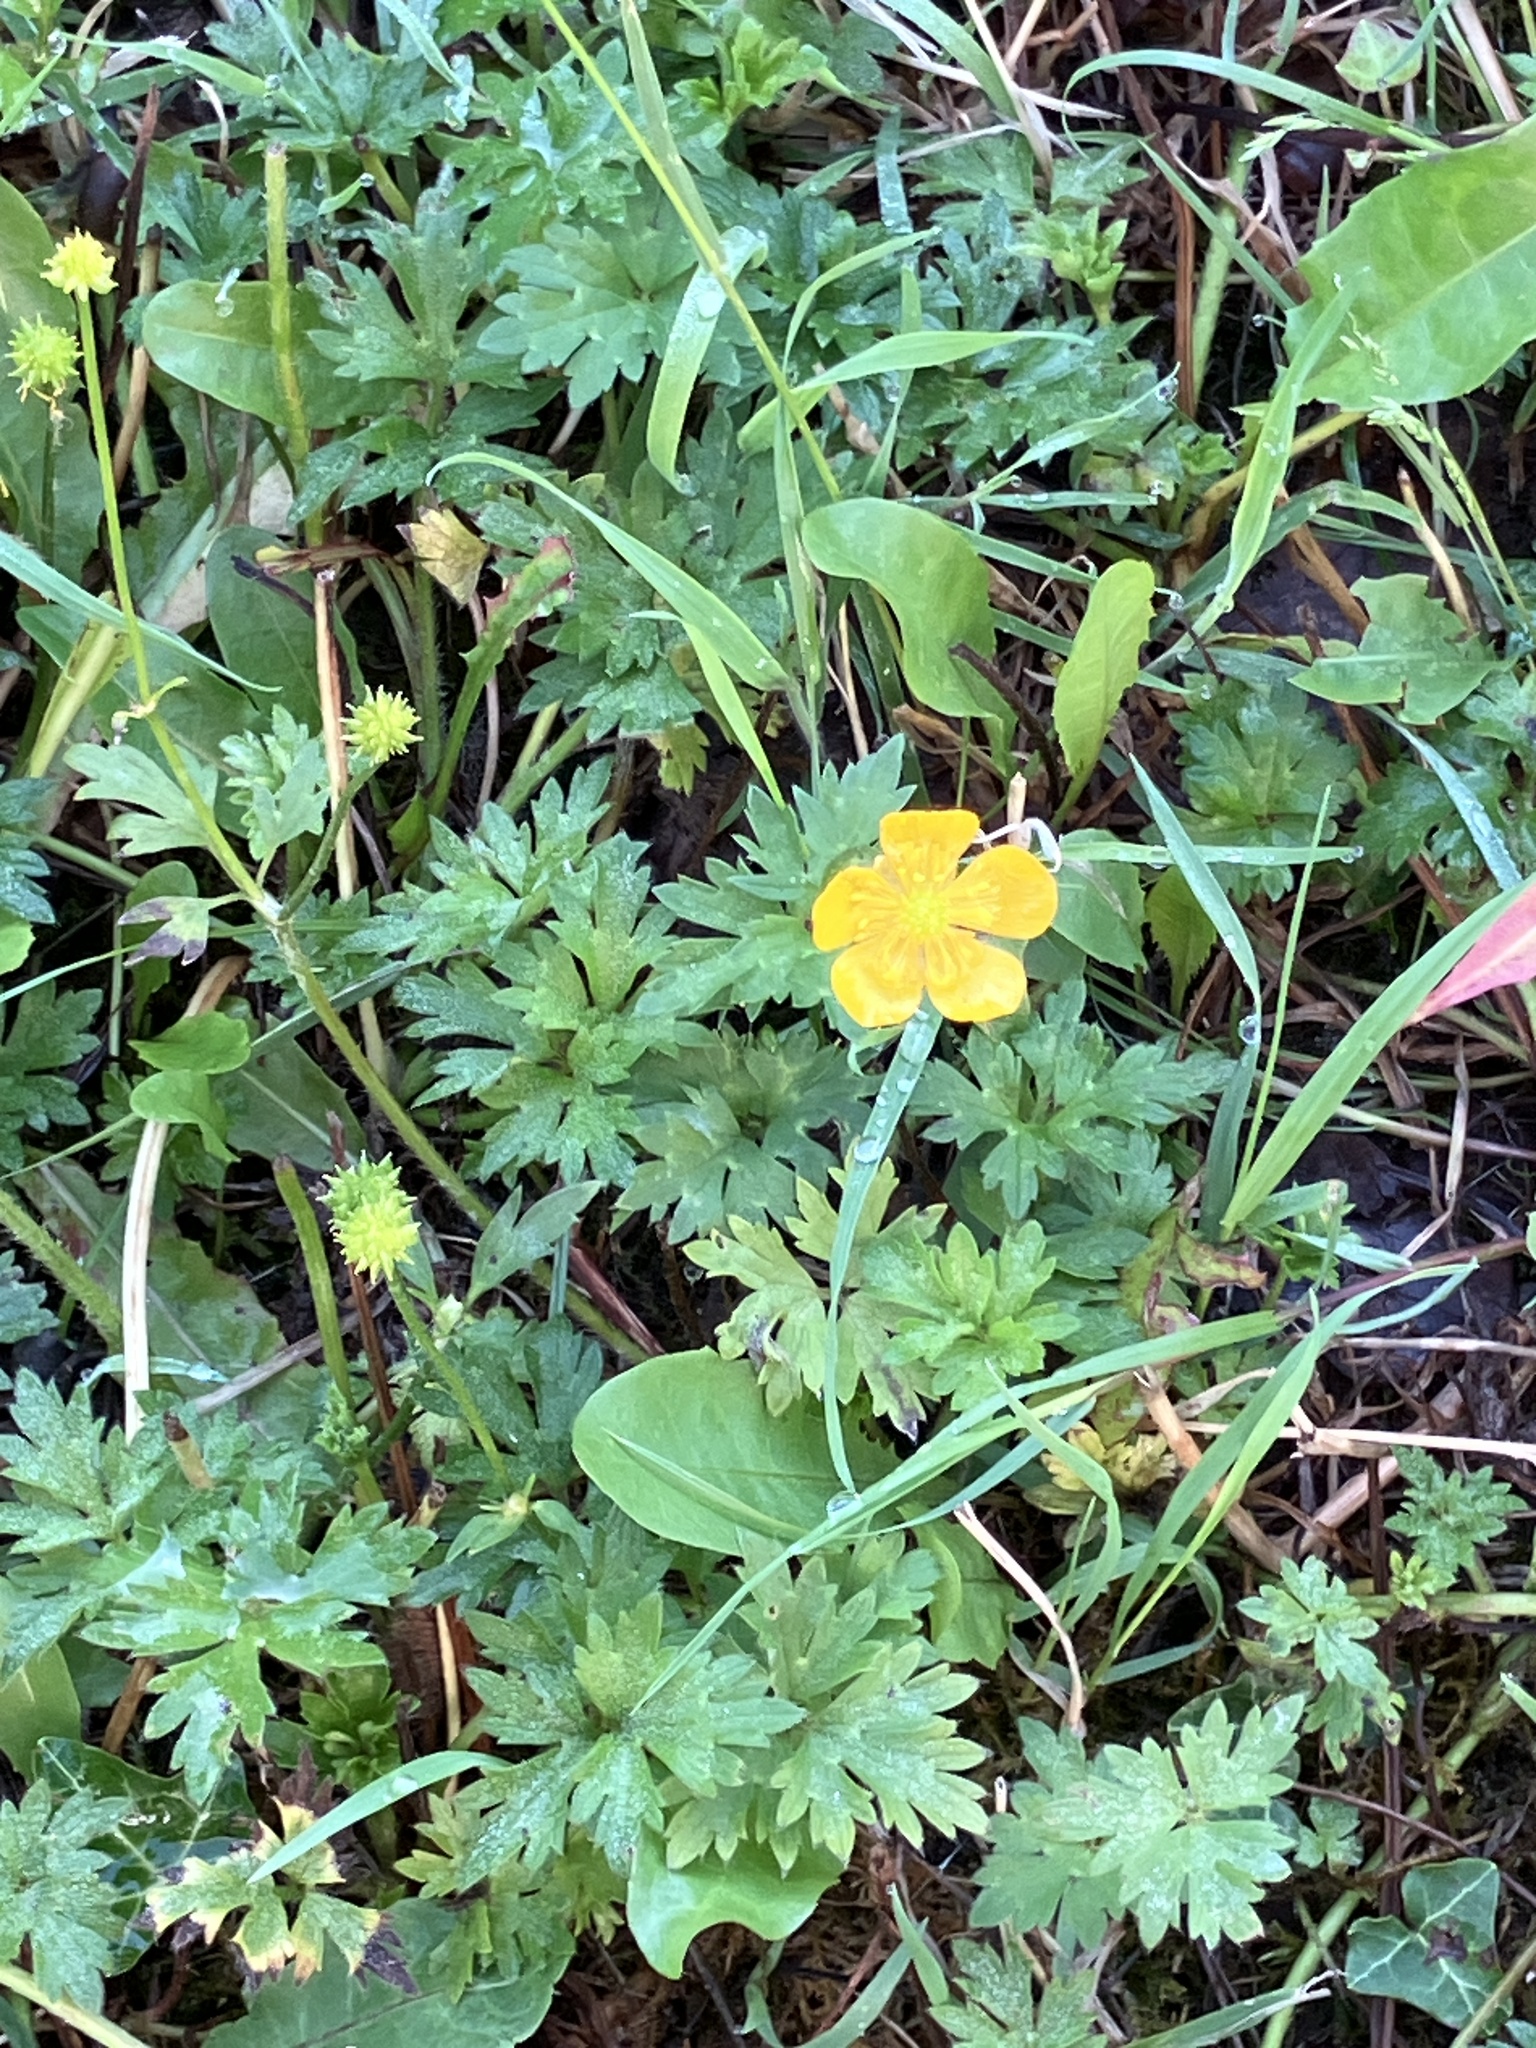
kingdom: Plantae
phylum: Tracheophyta
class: Magnoliopsida
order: Ranunculales
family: Ranunculaceae
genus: Ranunculus
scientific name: Ranunculus repens
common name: Creeping buttercup
